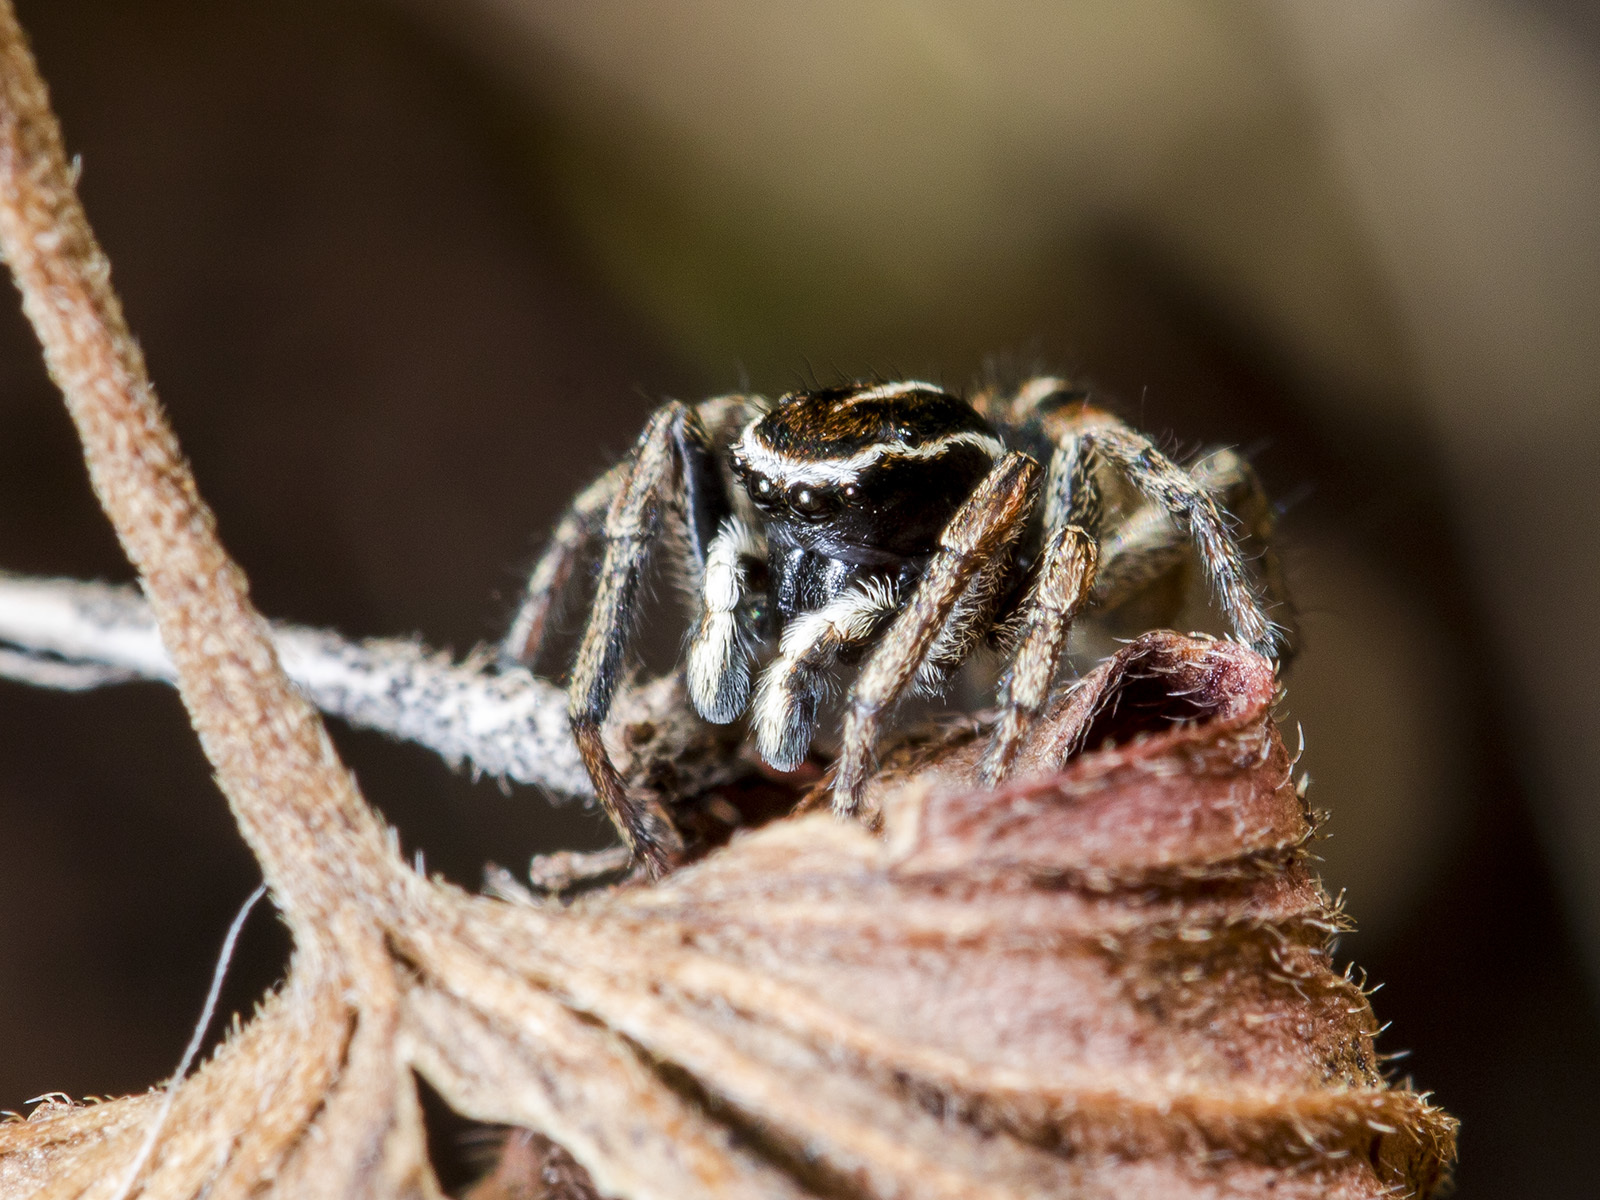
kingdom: Animalia
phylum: Arthropoda
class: Arachnida
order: Araneae
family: Salticidae
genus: Attulus
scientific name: Attulus talgarensis
